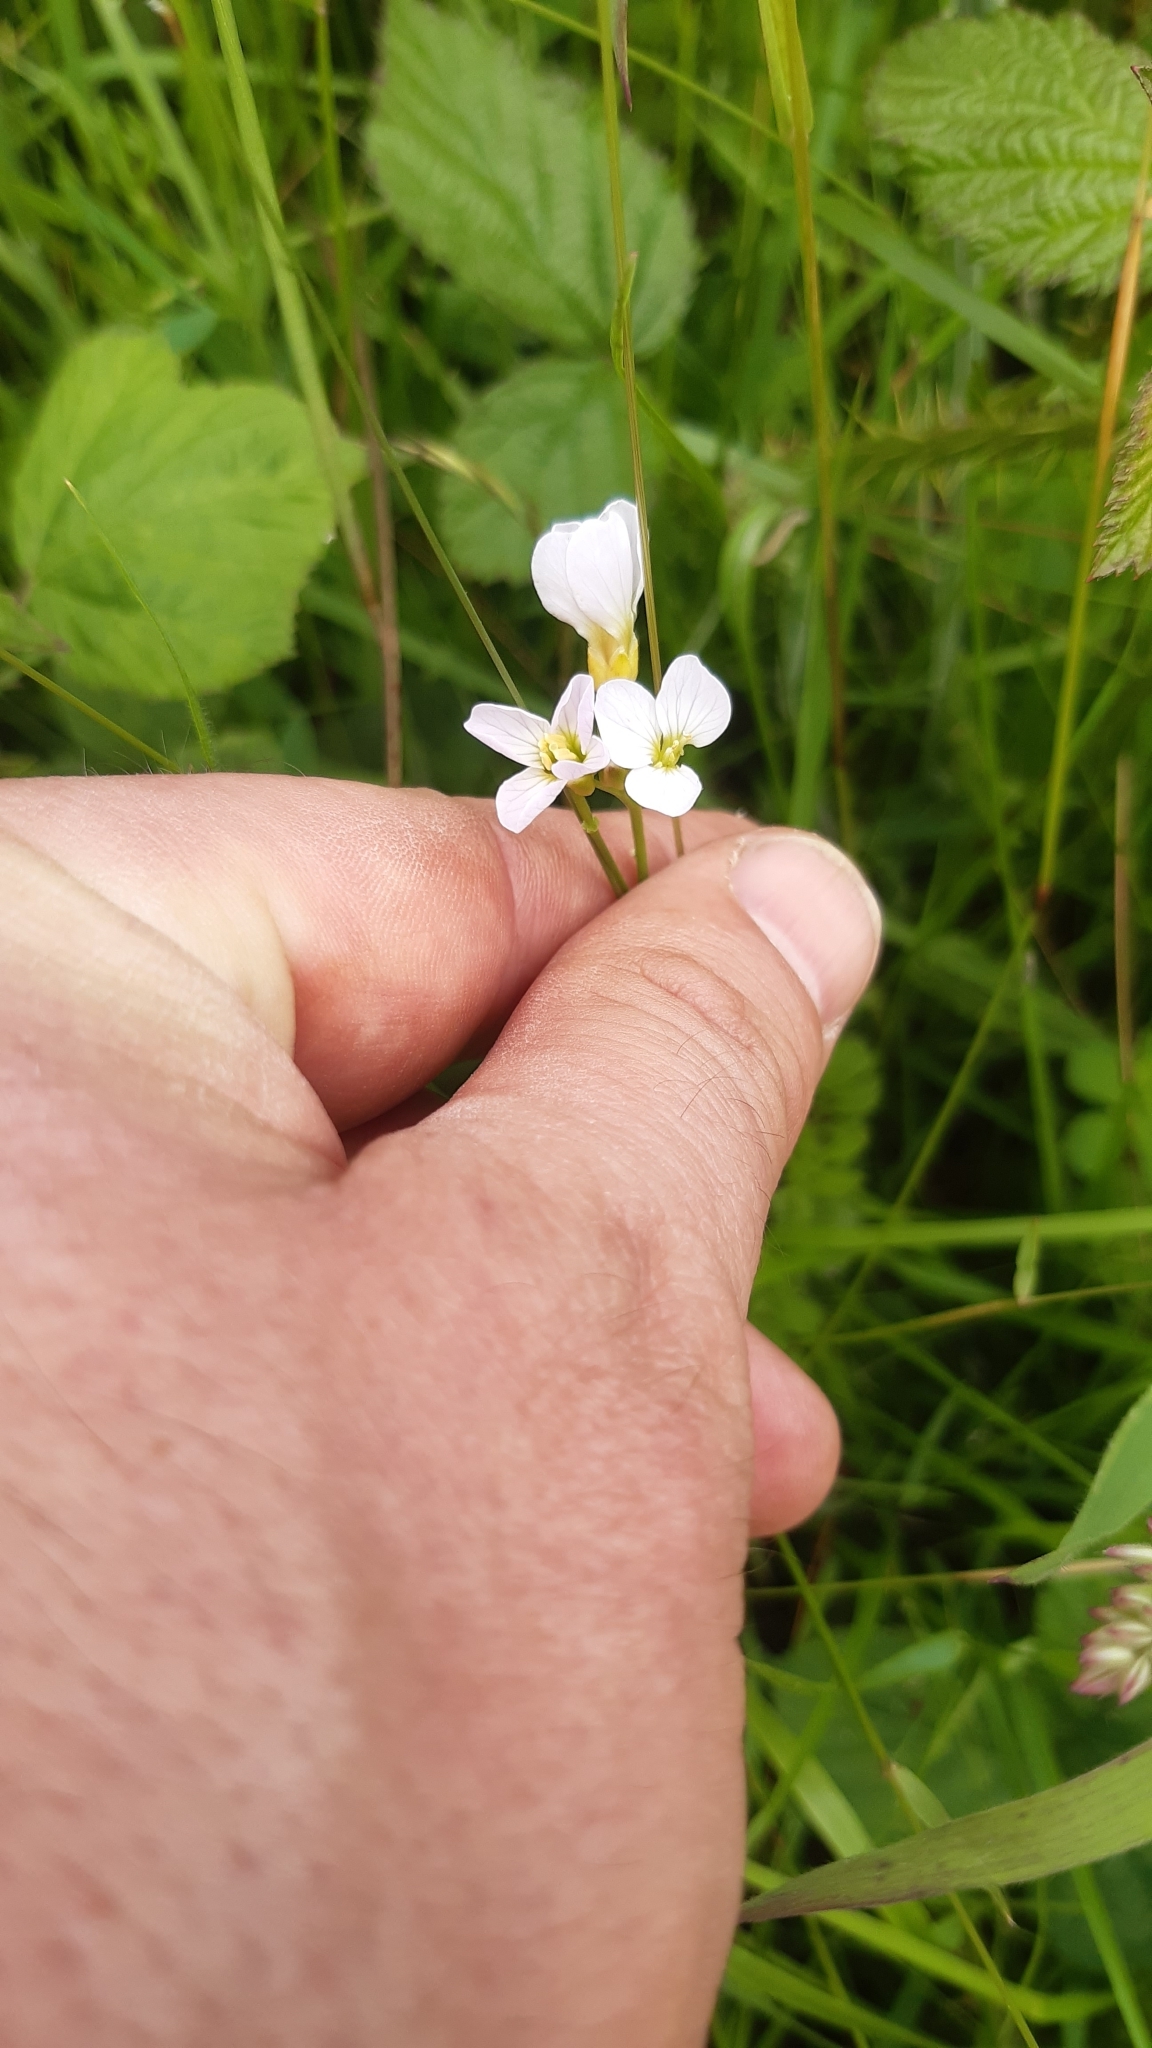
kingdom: Plantae
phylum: Tracheophyta
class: Magnoliopsida
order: Brassicales
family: Brassicaceae
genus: Cardamine
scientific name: Cardamine pratensis
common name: Cuckoo flower
